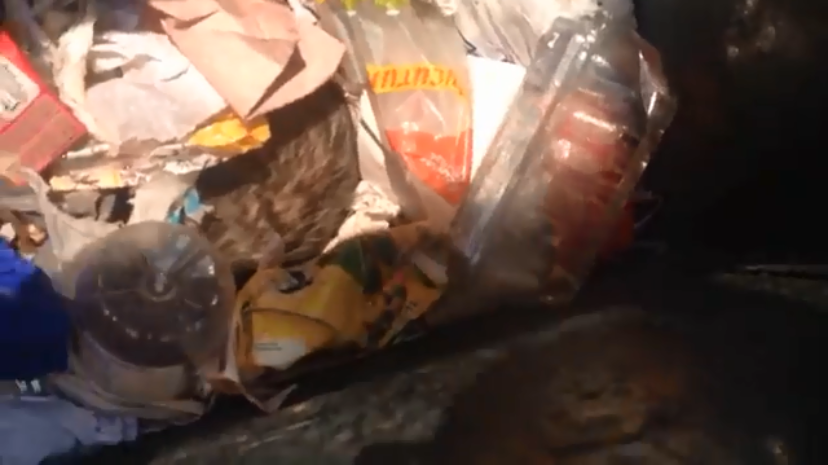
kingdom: Animalia
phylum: Chordata
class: Mammalia
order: Didelphimorphia
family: Didelphidae
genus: Didelphis
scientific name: Didelphis virginiana
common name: Virginia opossum
